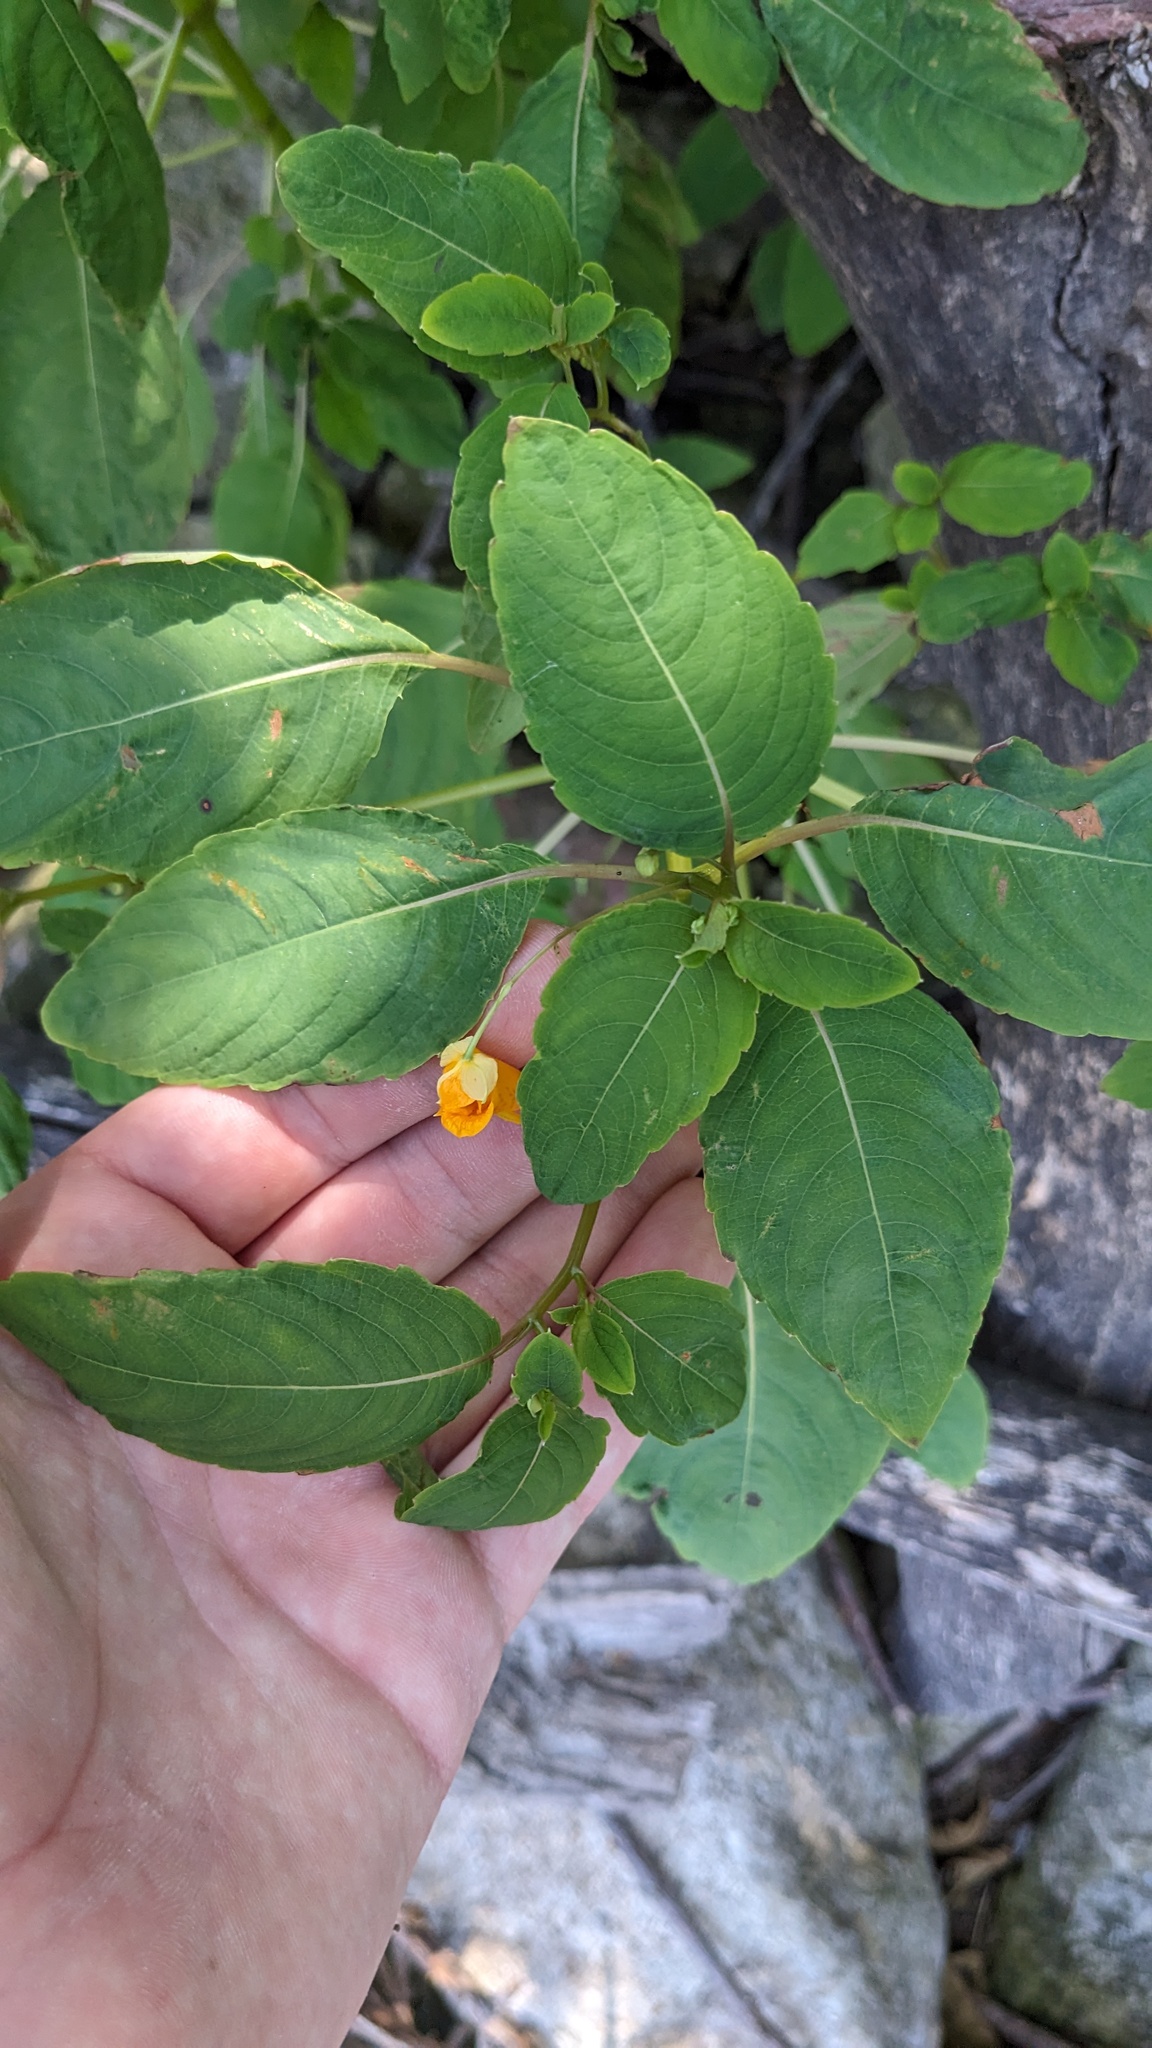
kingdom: Plantae
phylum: Tracheophyta
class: Magnoliopsida
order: Ericales
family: Balsaminaceae
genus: Impatiens
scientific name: Impatiens capensis
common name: Orange balsam
